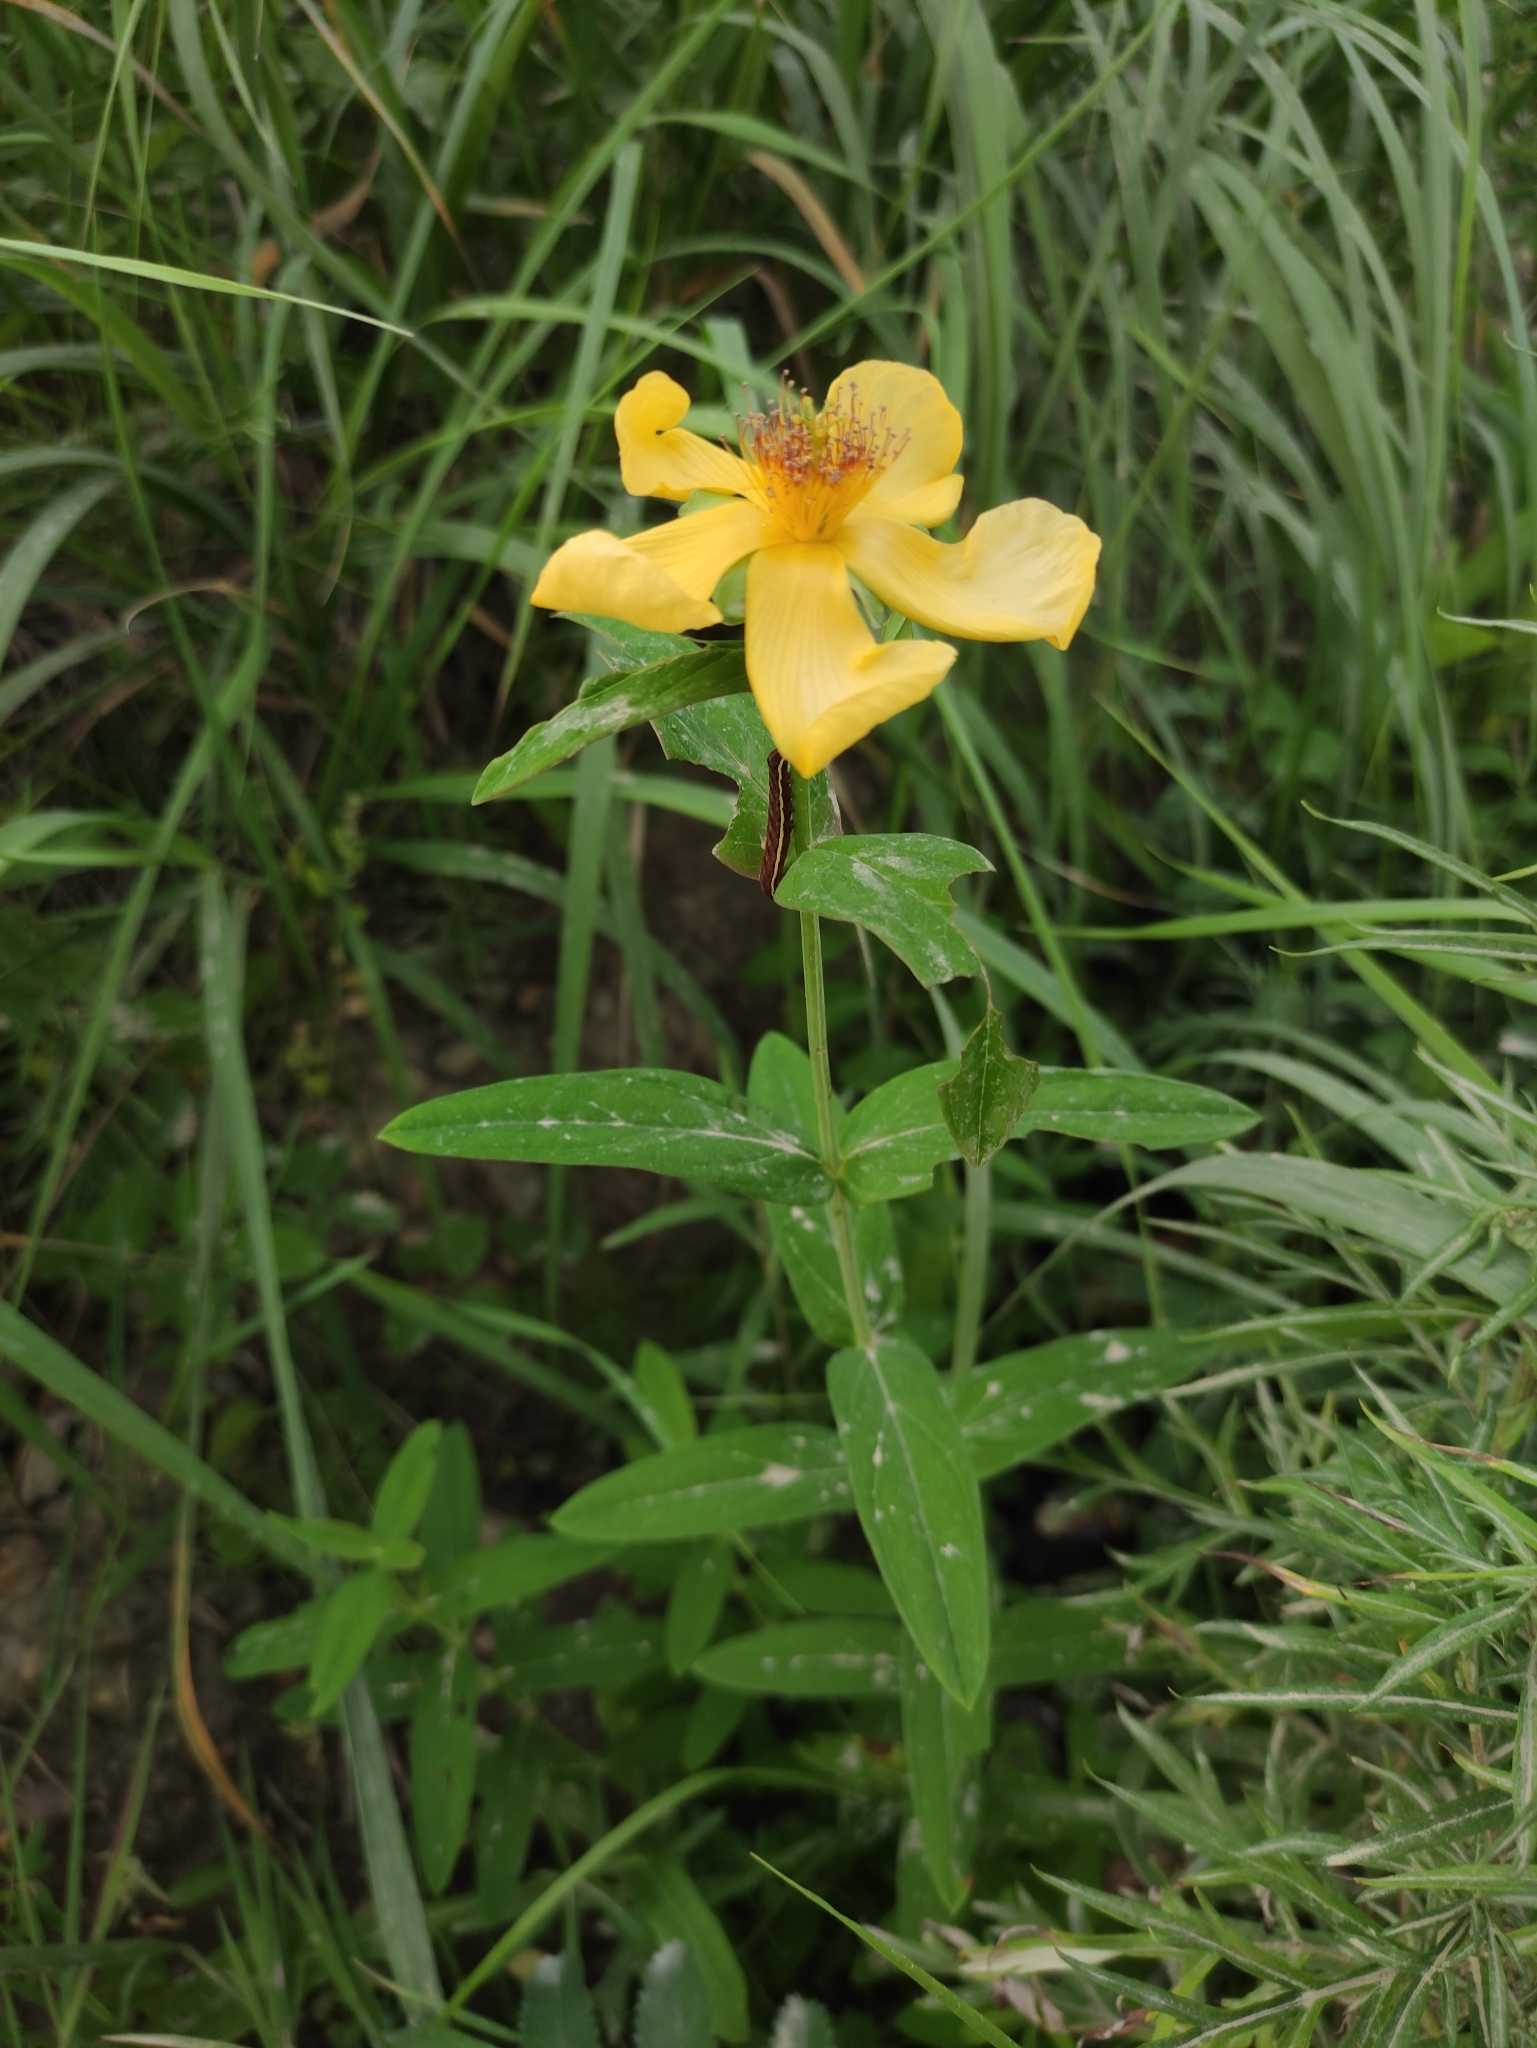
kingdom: Plantae
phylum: Tracheophyta
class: Magnoliopsida
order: Malpighiales
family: Hypericaceae
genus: Hypericum
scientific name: Hypericum ascyron
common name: Giant st. john's-wort
